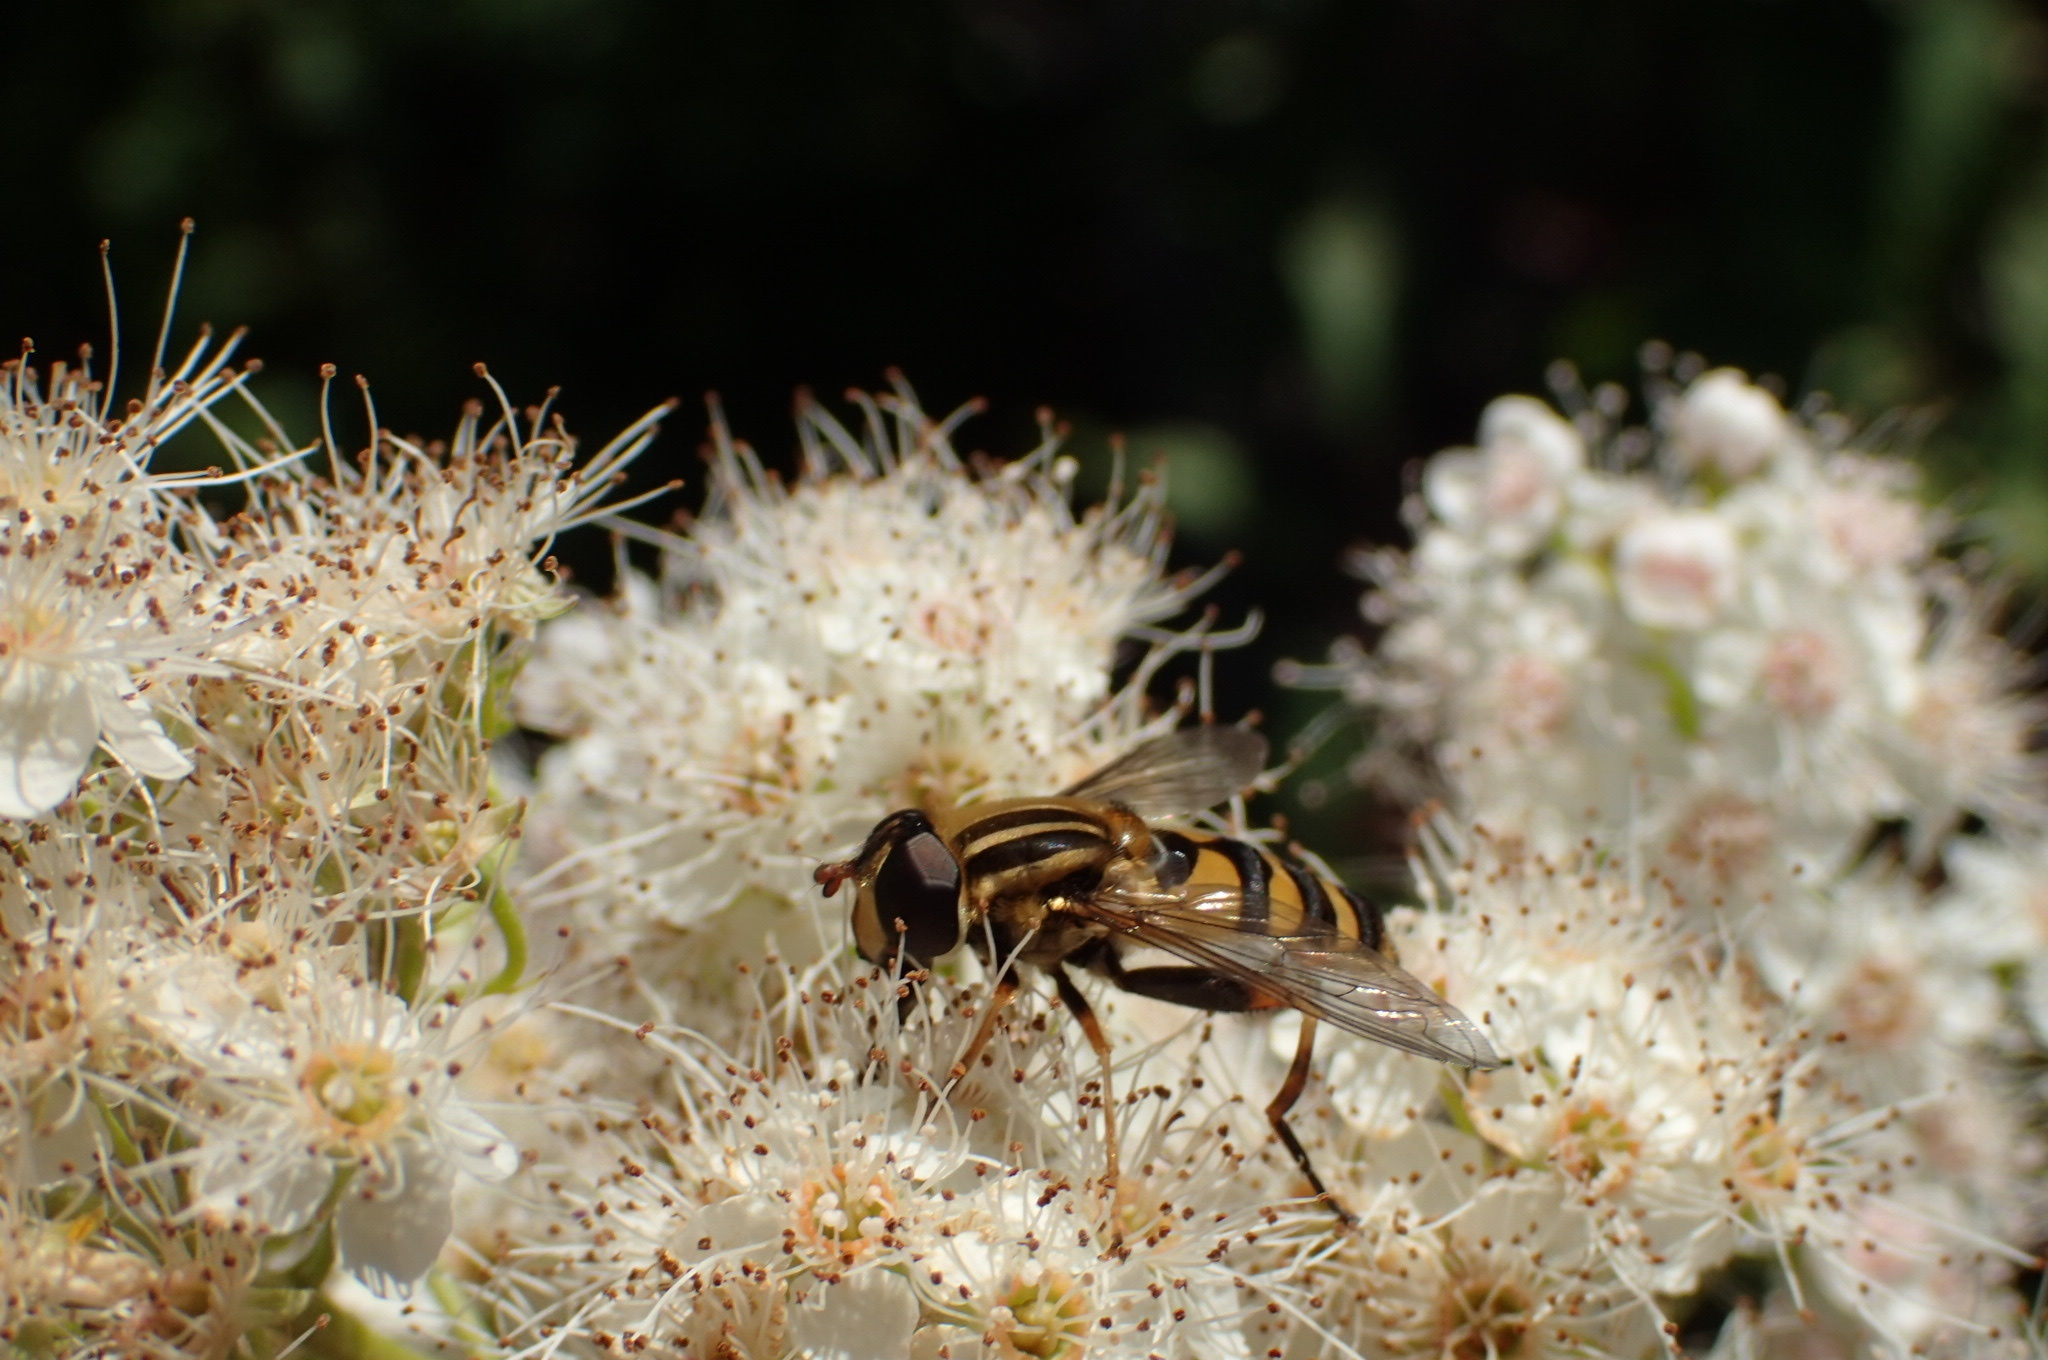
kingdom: Animalia
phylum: Arthropoda
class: Insecta
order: Diptera
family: Syrphidae
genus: Helophilus
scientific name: Helophilus fasciatus
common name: Narrow-headed marsh fly
